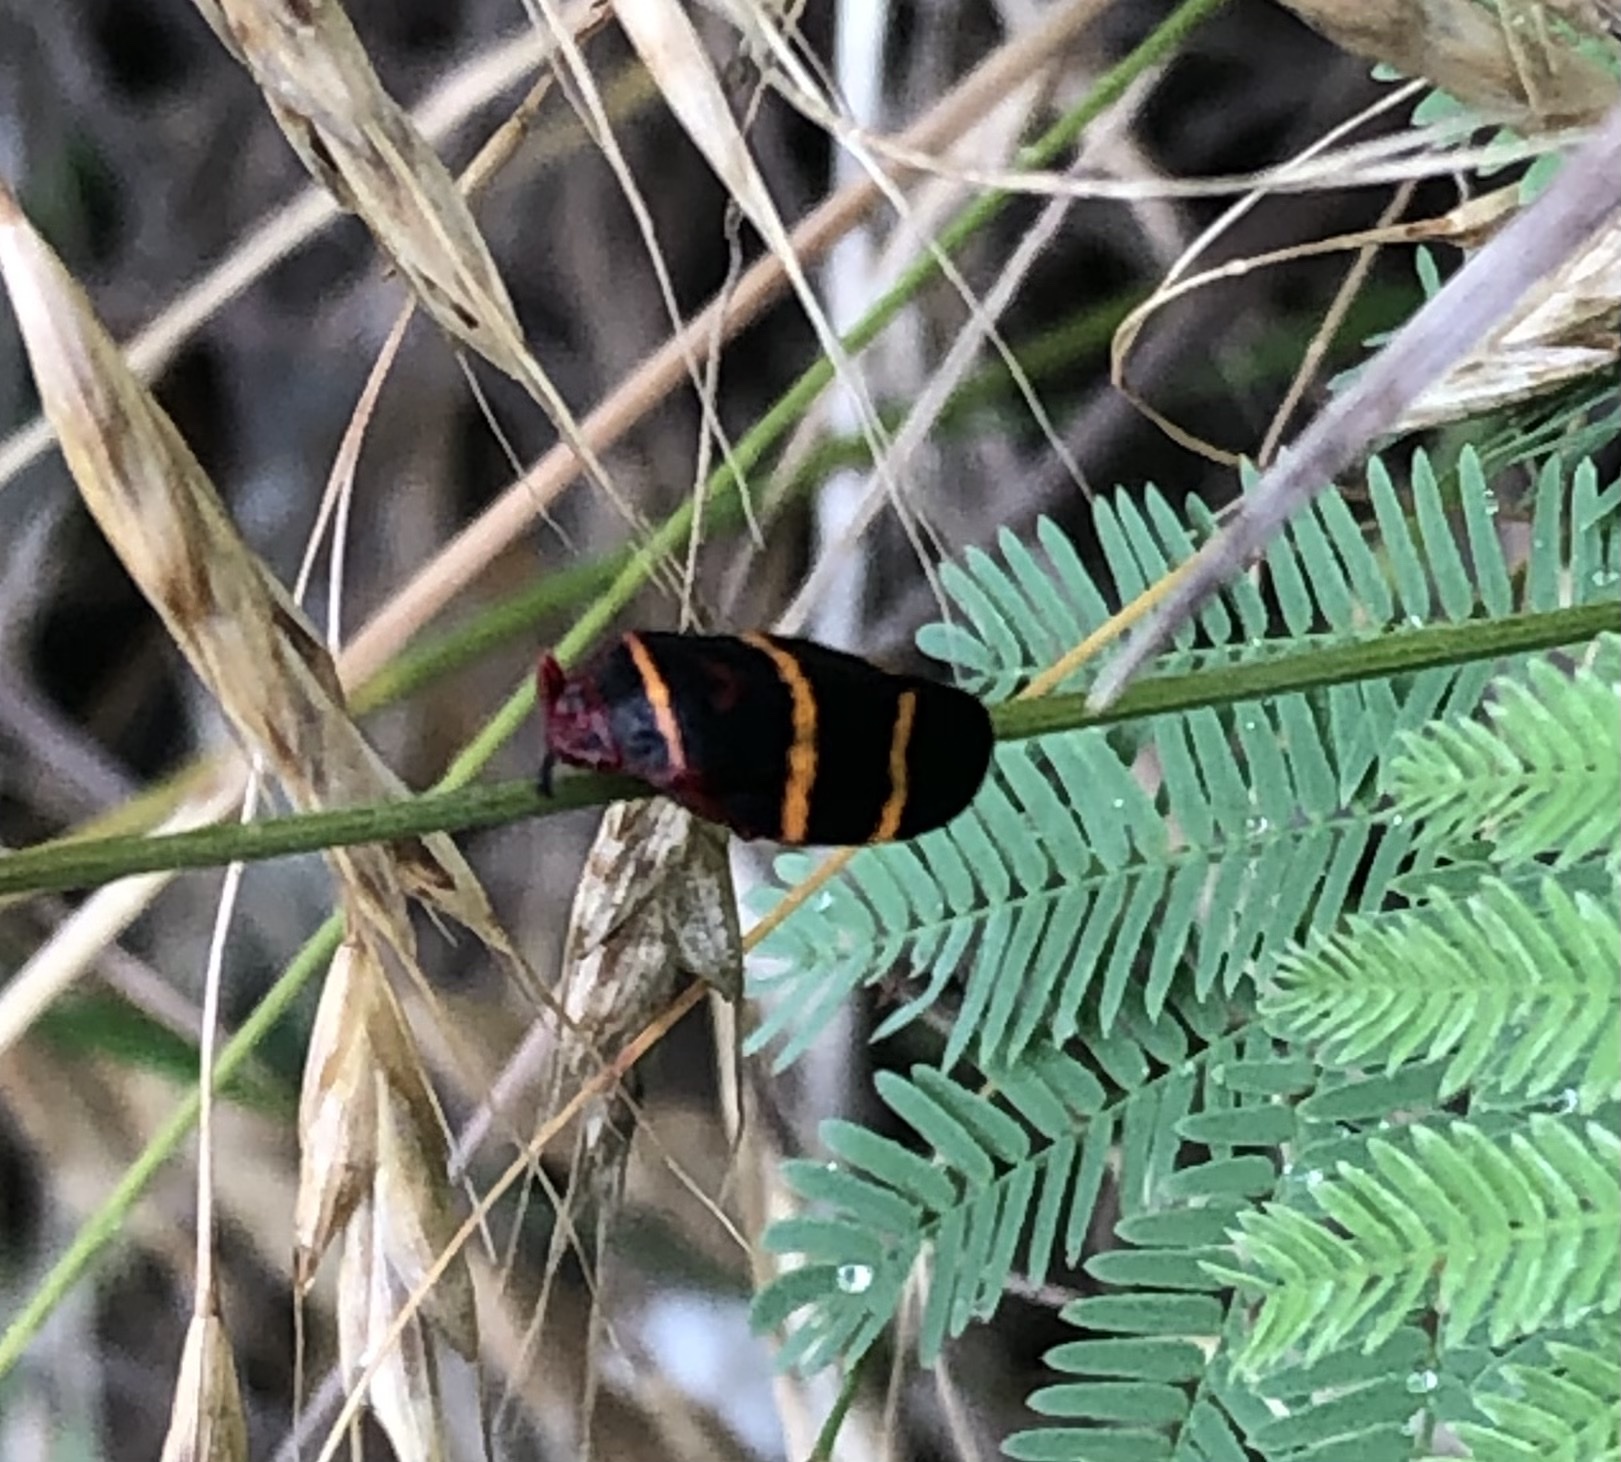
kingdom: Animalia
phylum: Arthropoda
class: Insecta
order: Hemiptera
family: Cercopidae
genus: Prosapia
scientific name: Prosapia bicincta
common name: Twolined spittlebug
